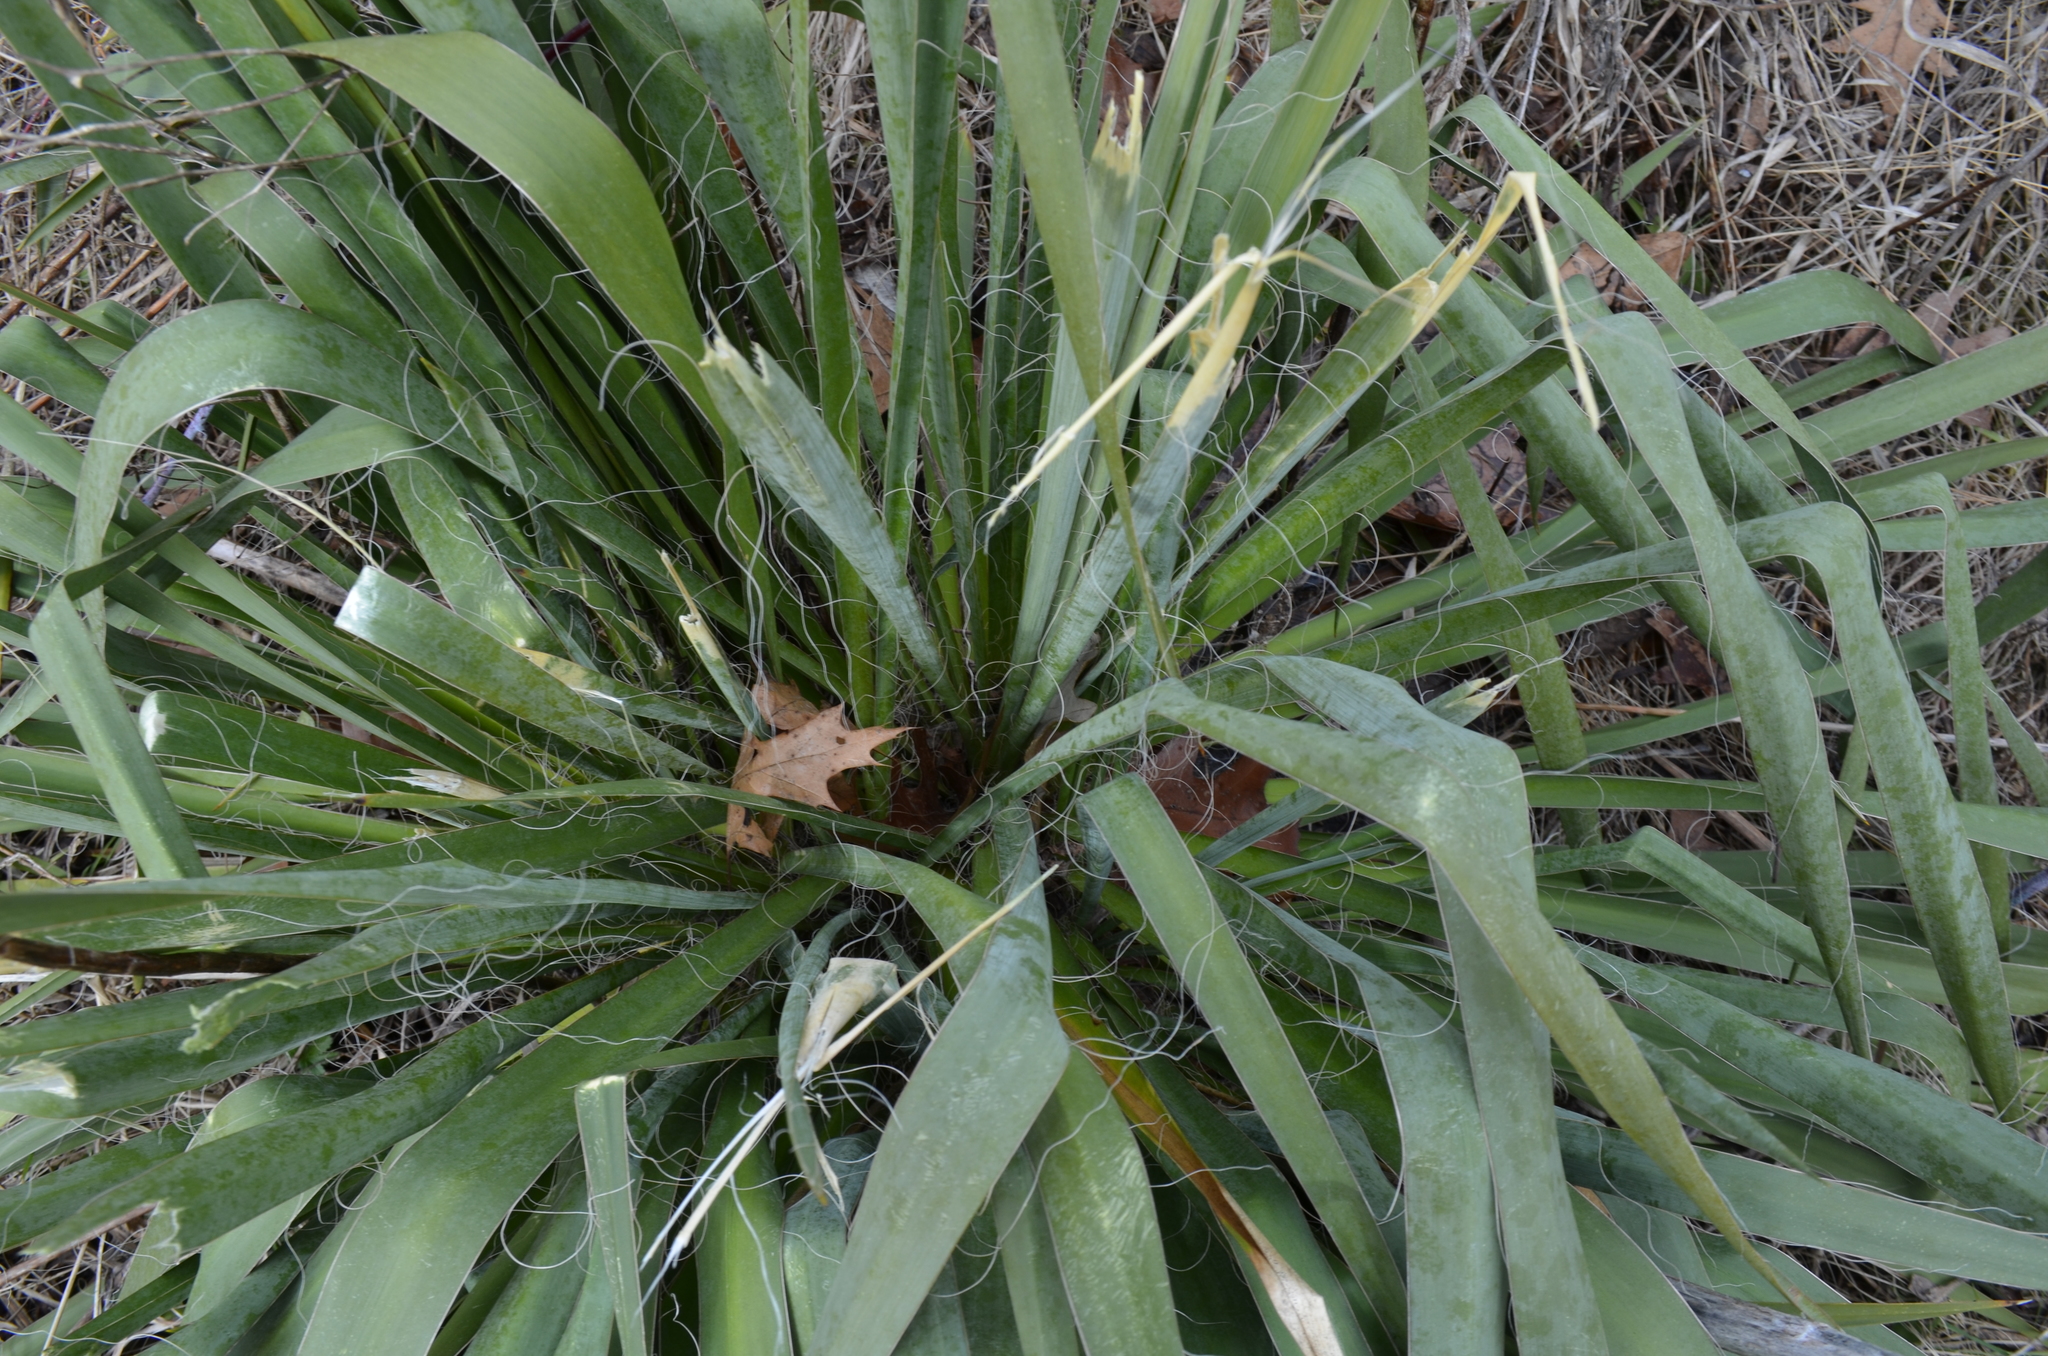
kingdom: Plantae
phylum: Tracheophyta
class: Liliopsida
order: Asparagales
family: Asparagaceae
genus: Yucca
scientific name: Yucca filamentosa
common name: Adam's-needle
